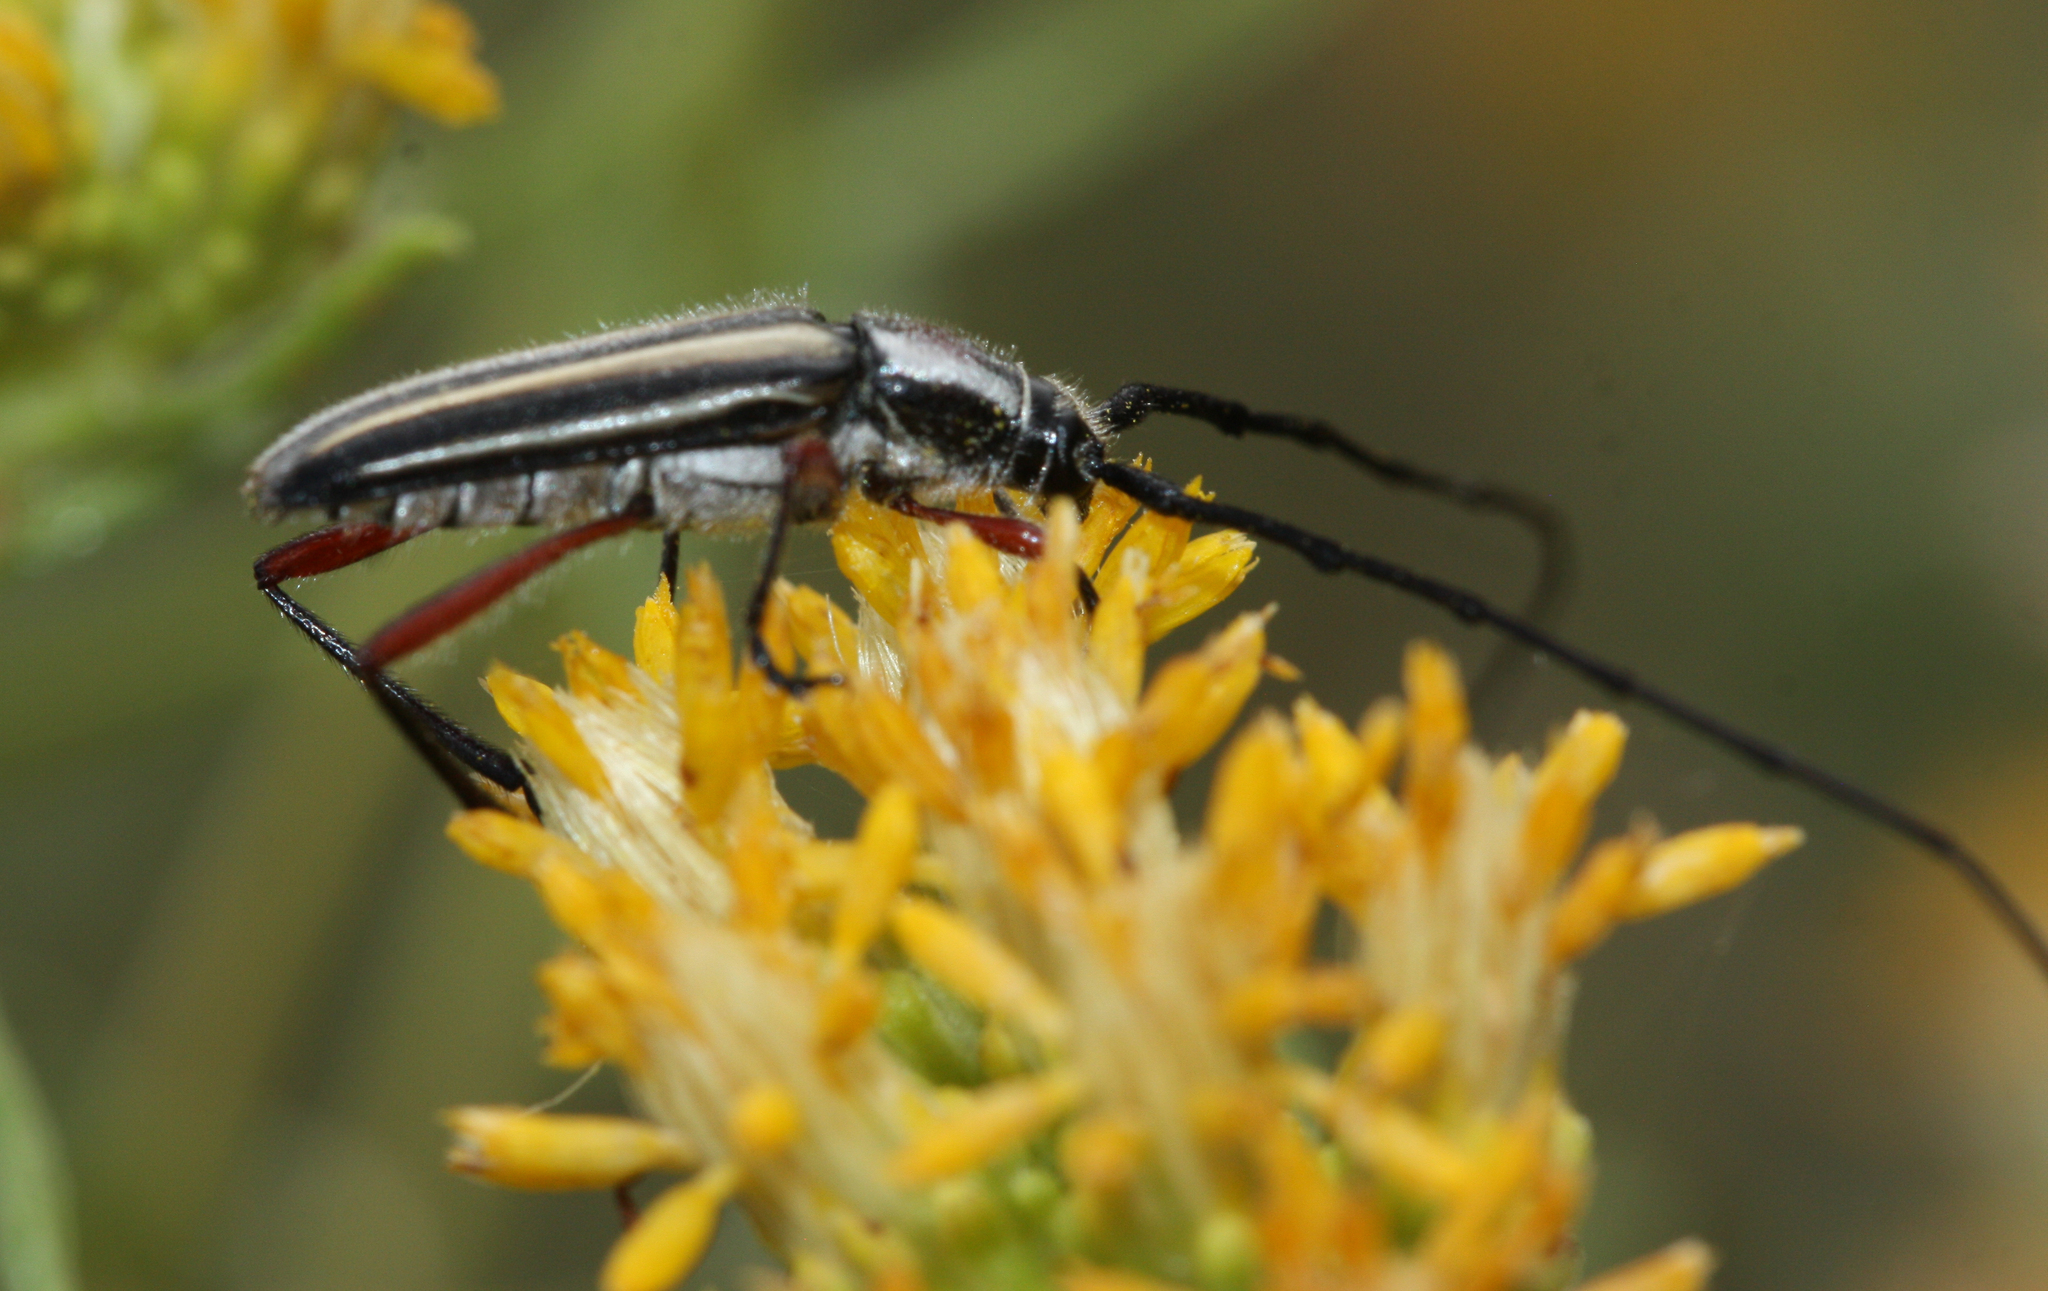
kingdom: Animalia
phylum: Arthropoda
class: Insecta
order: Coleoptera
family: Cerambycidae
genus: Sphaenothecus
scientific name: Sphaenothecus bilineatus
